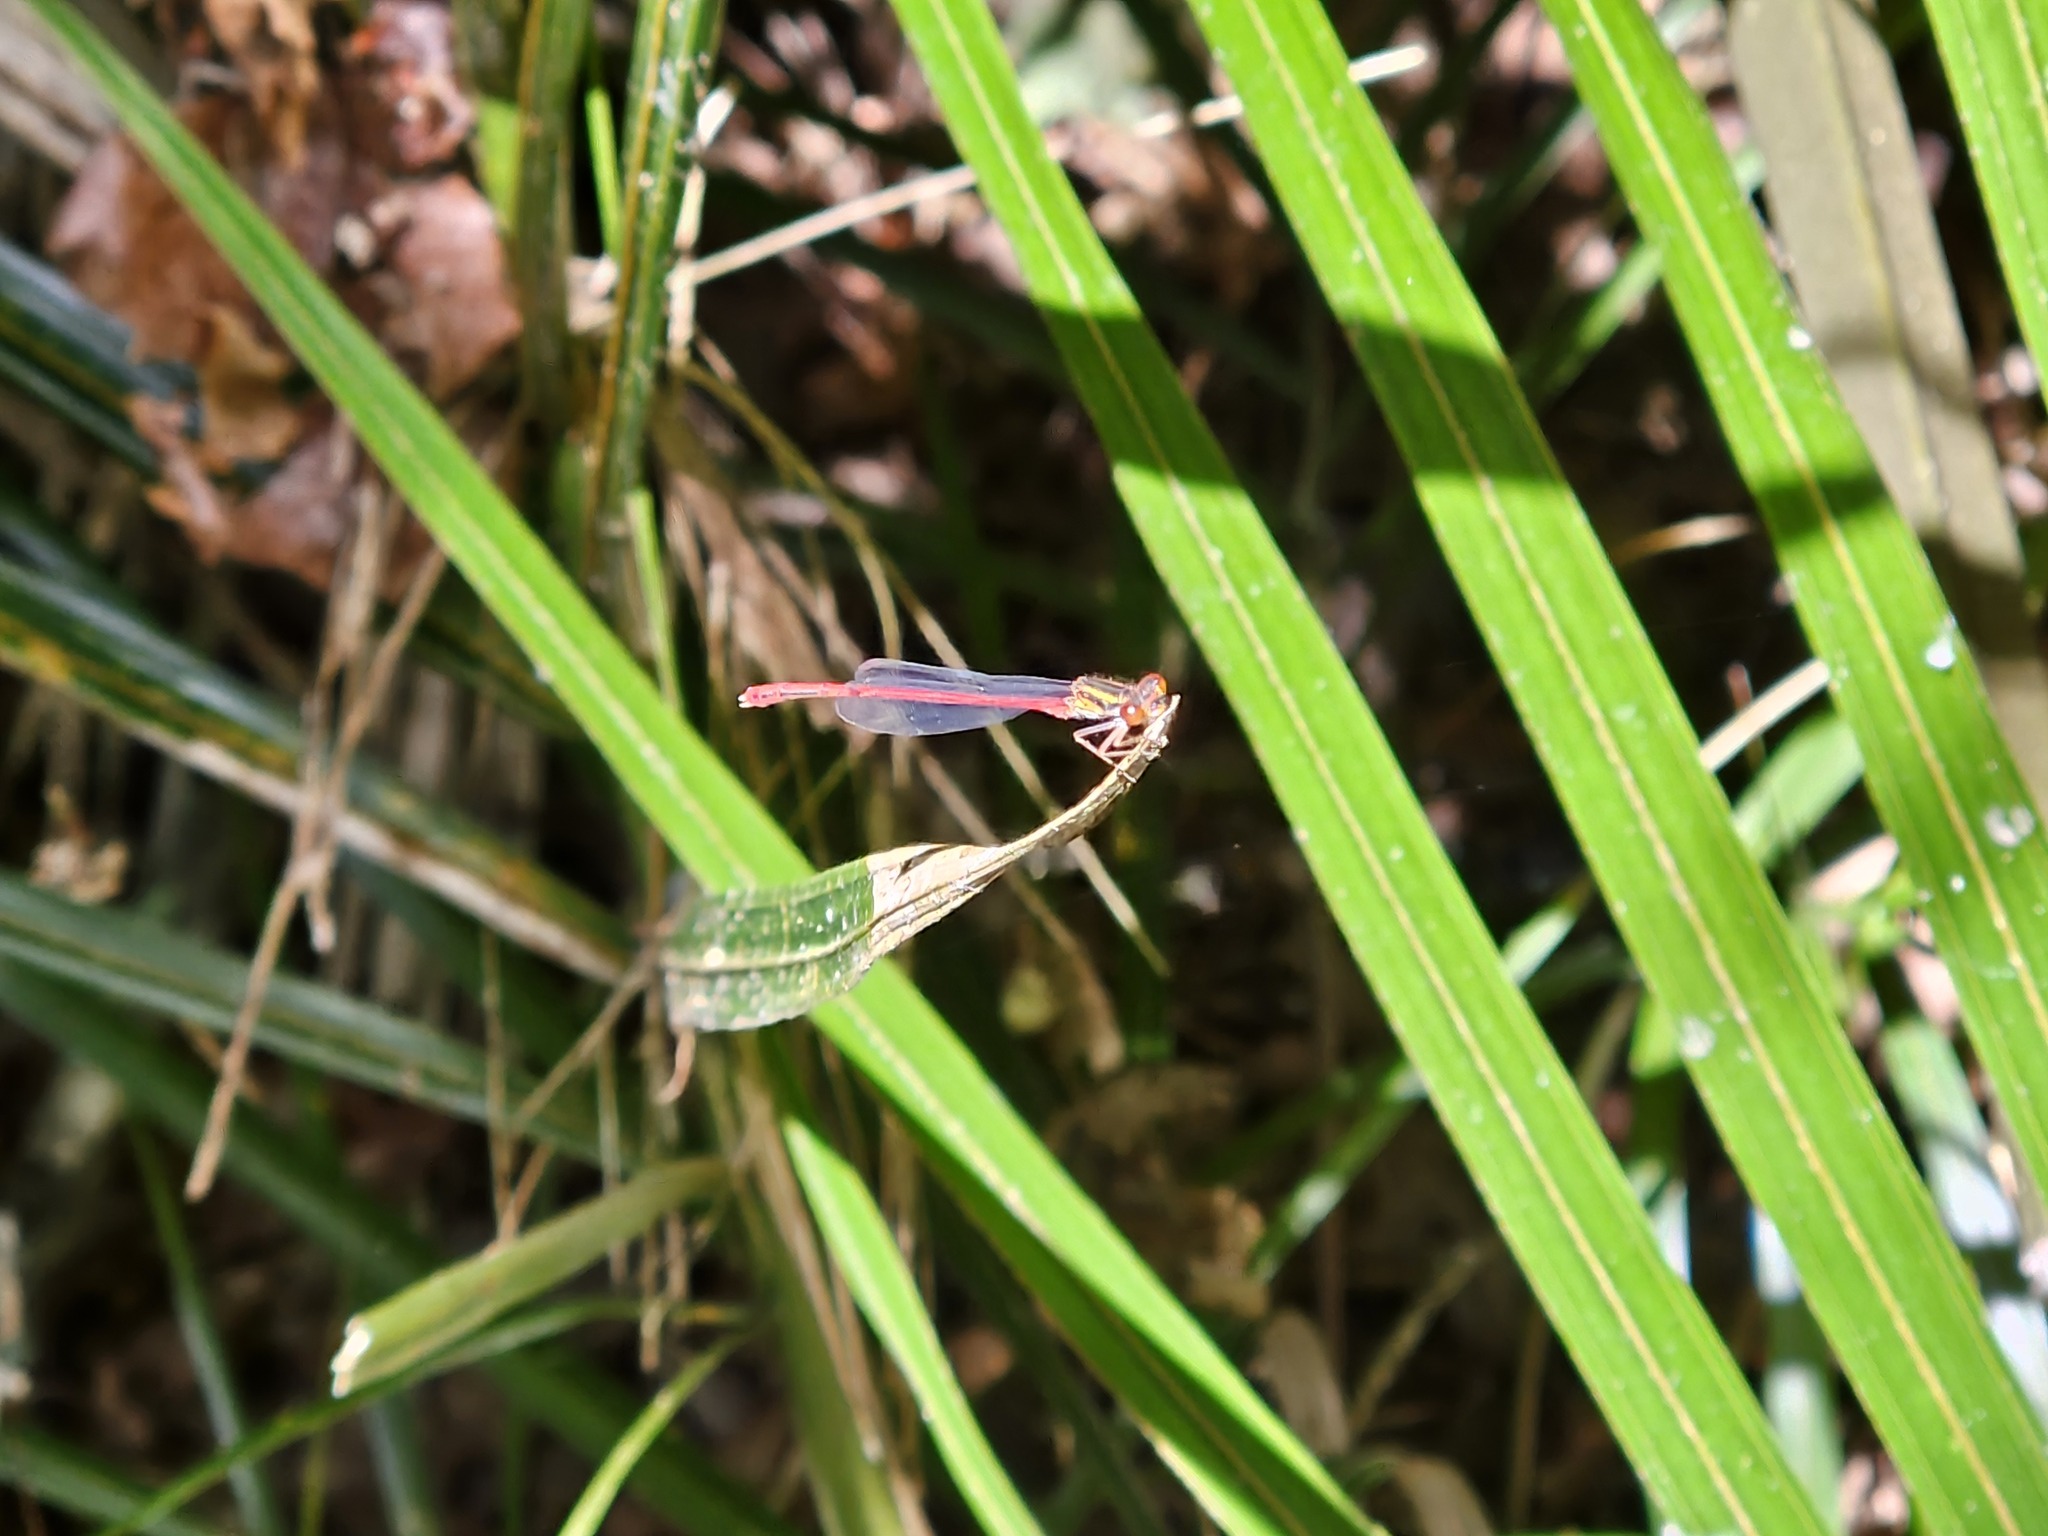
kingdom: Animalia
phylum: Arthropoda
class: Insecta
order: Odonata
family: Coenagrionidae
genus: Xanthocnemis
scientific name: Xanthocnemis zealandica
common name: Common redcoat damselfly
